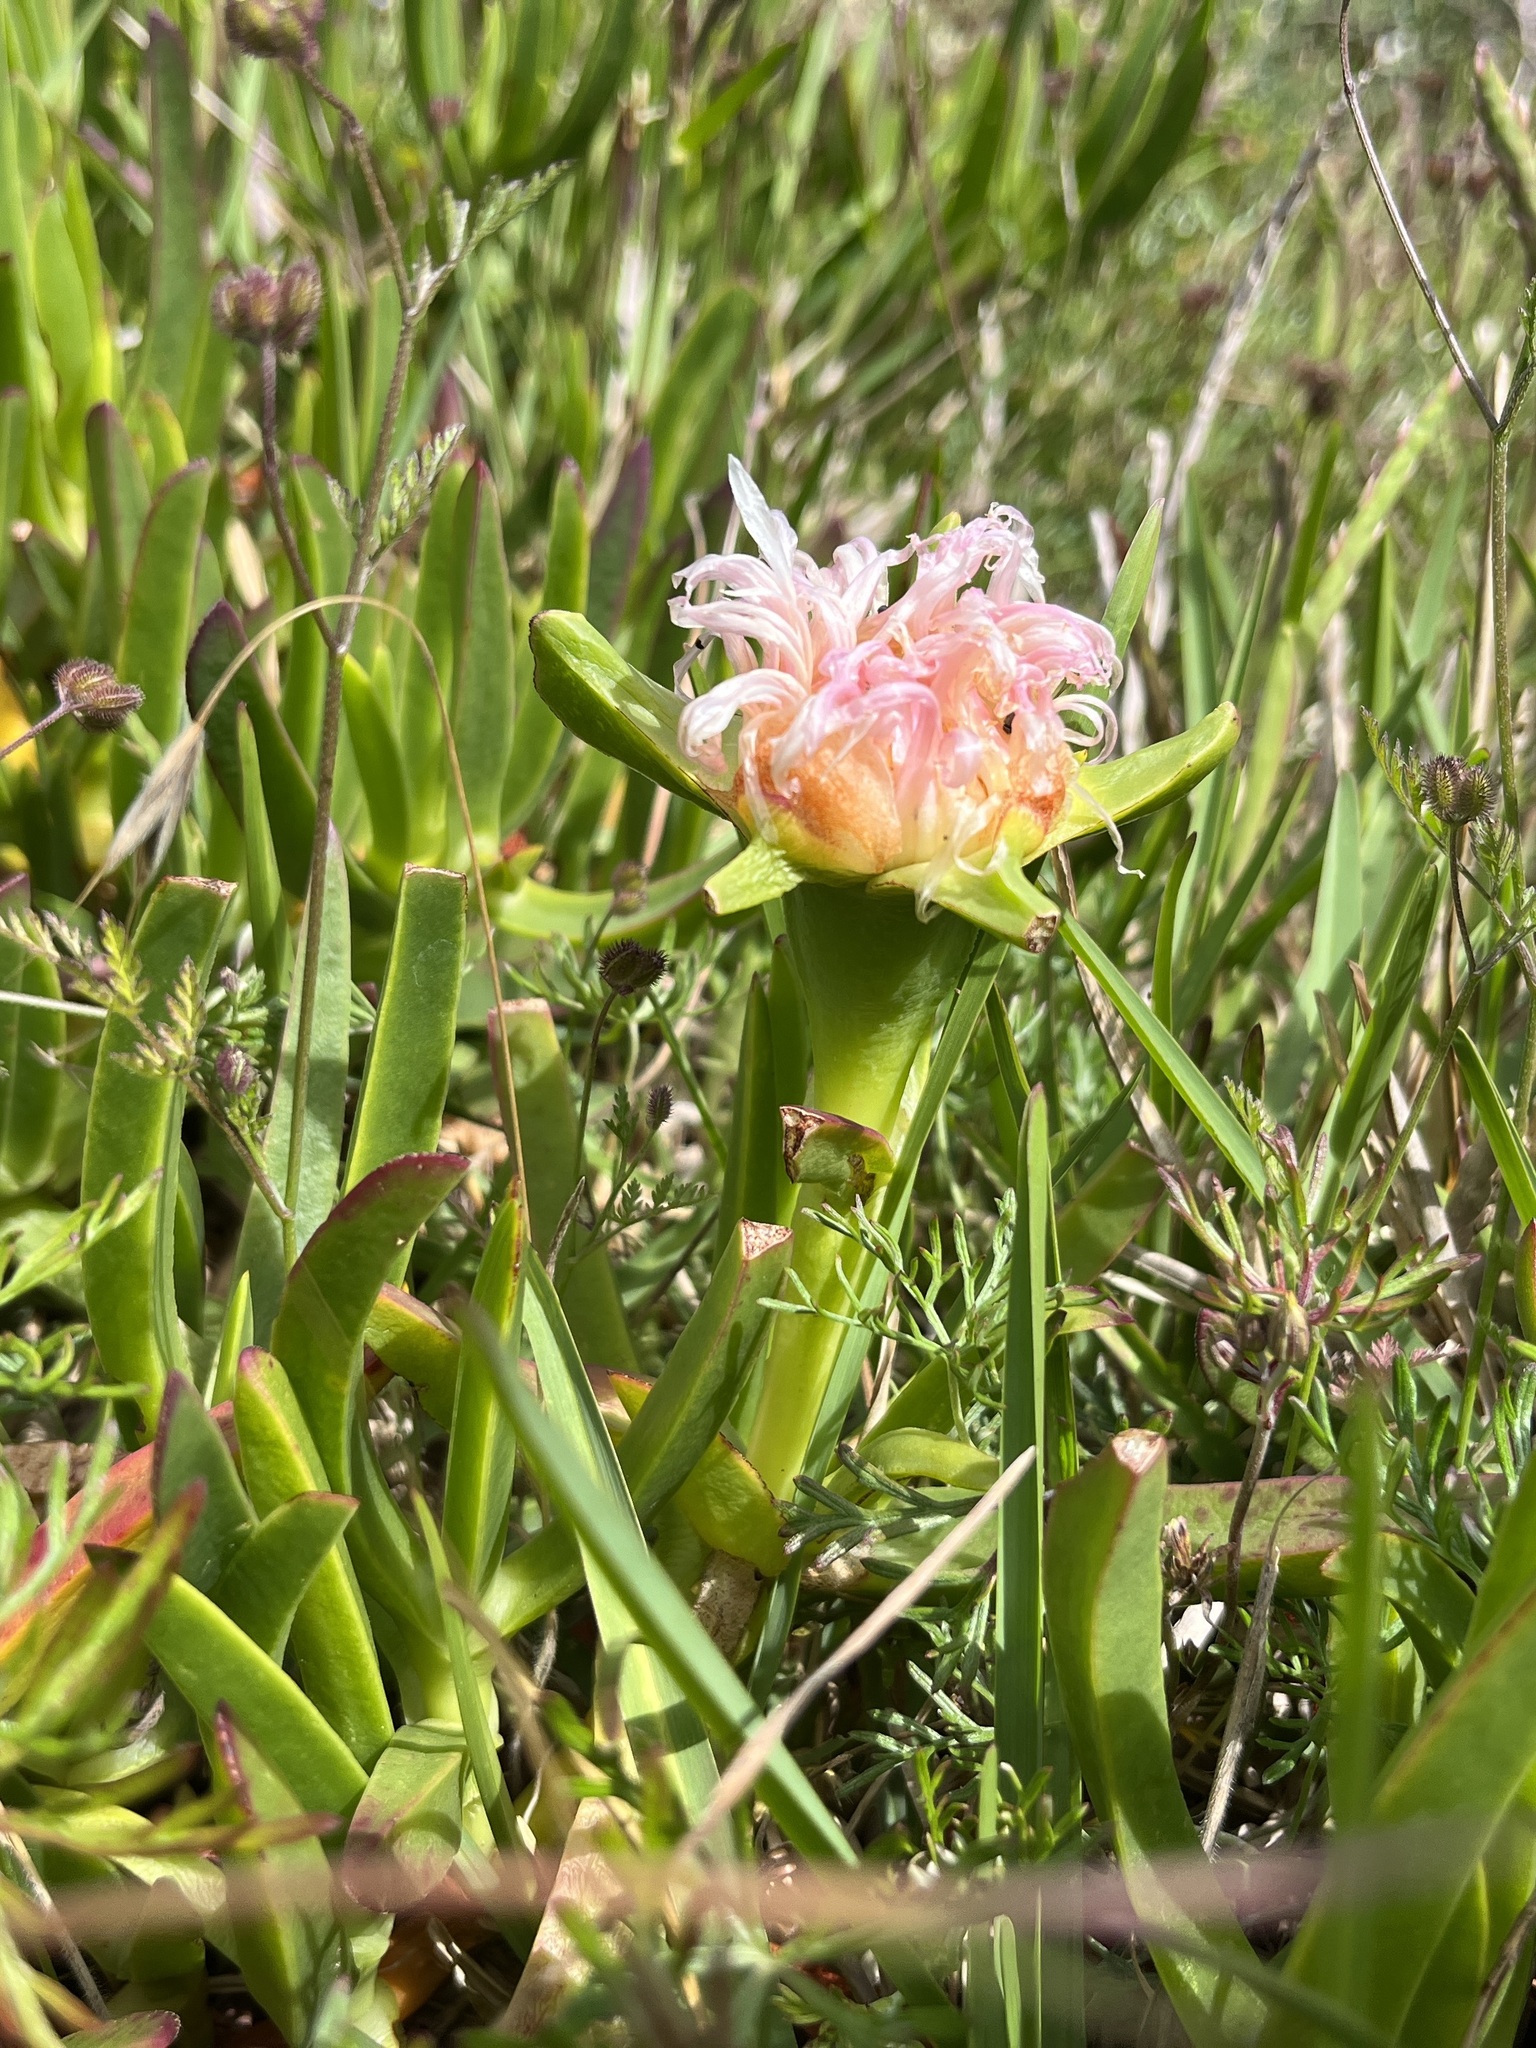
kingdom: Plantae
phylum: Tracheophyta
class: Magnoliopsida
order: Caryophyllales
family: Aizoaceae
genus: Carpobrotus
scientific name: Carpobrotus edulis
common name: Hottentot-fig
